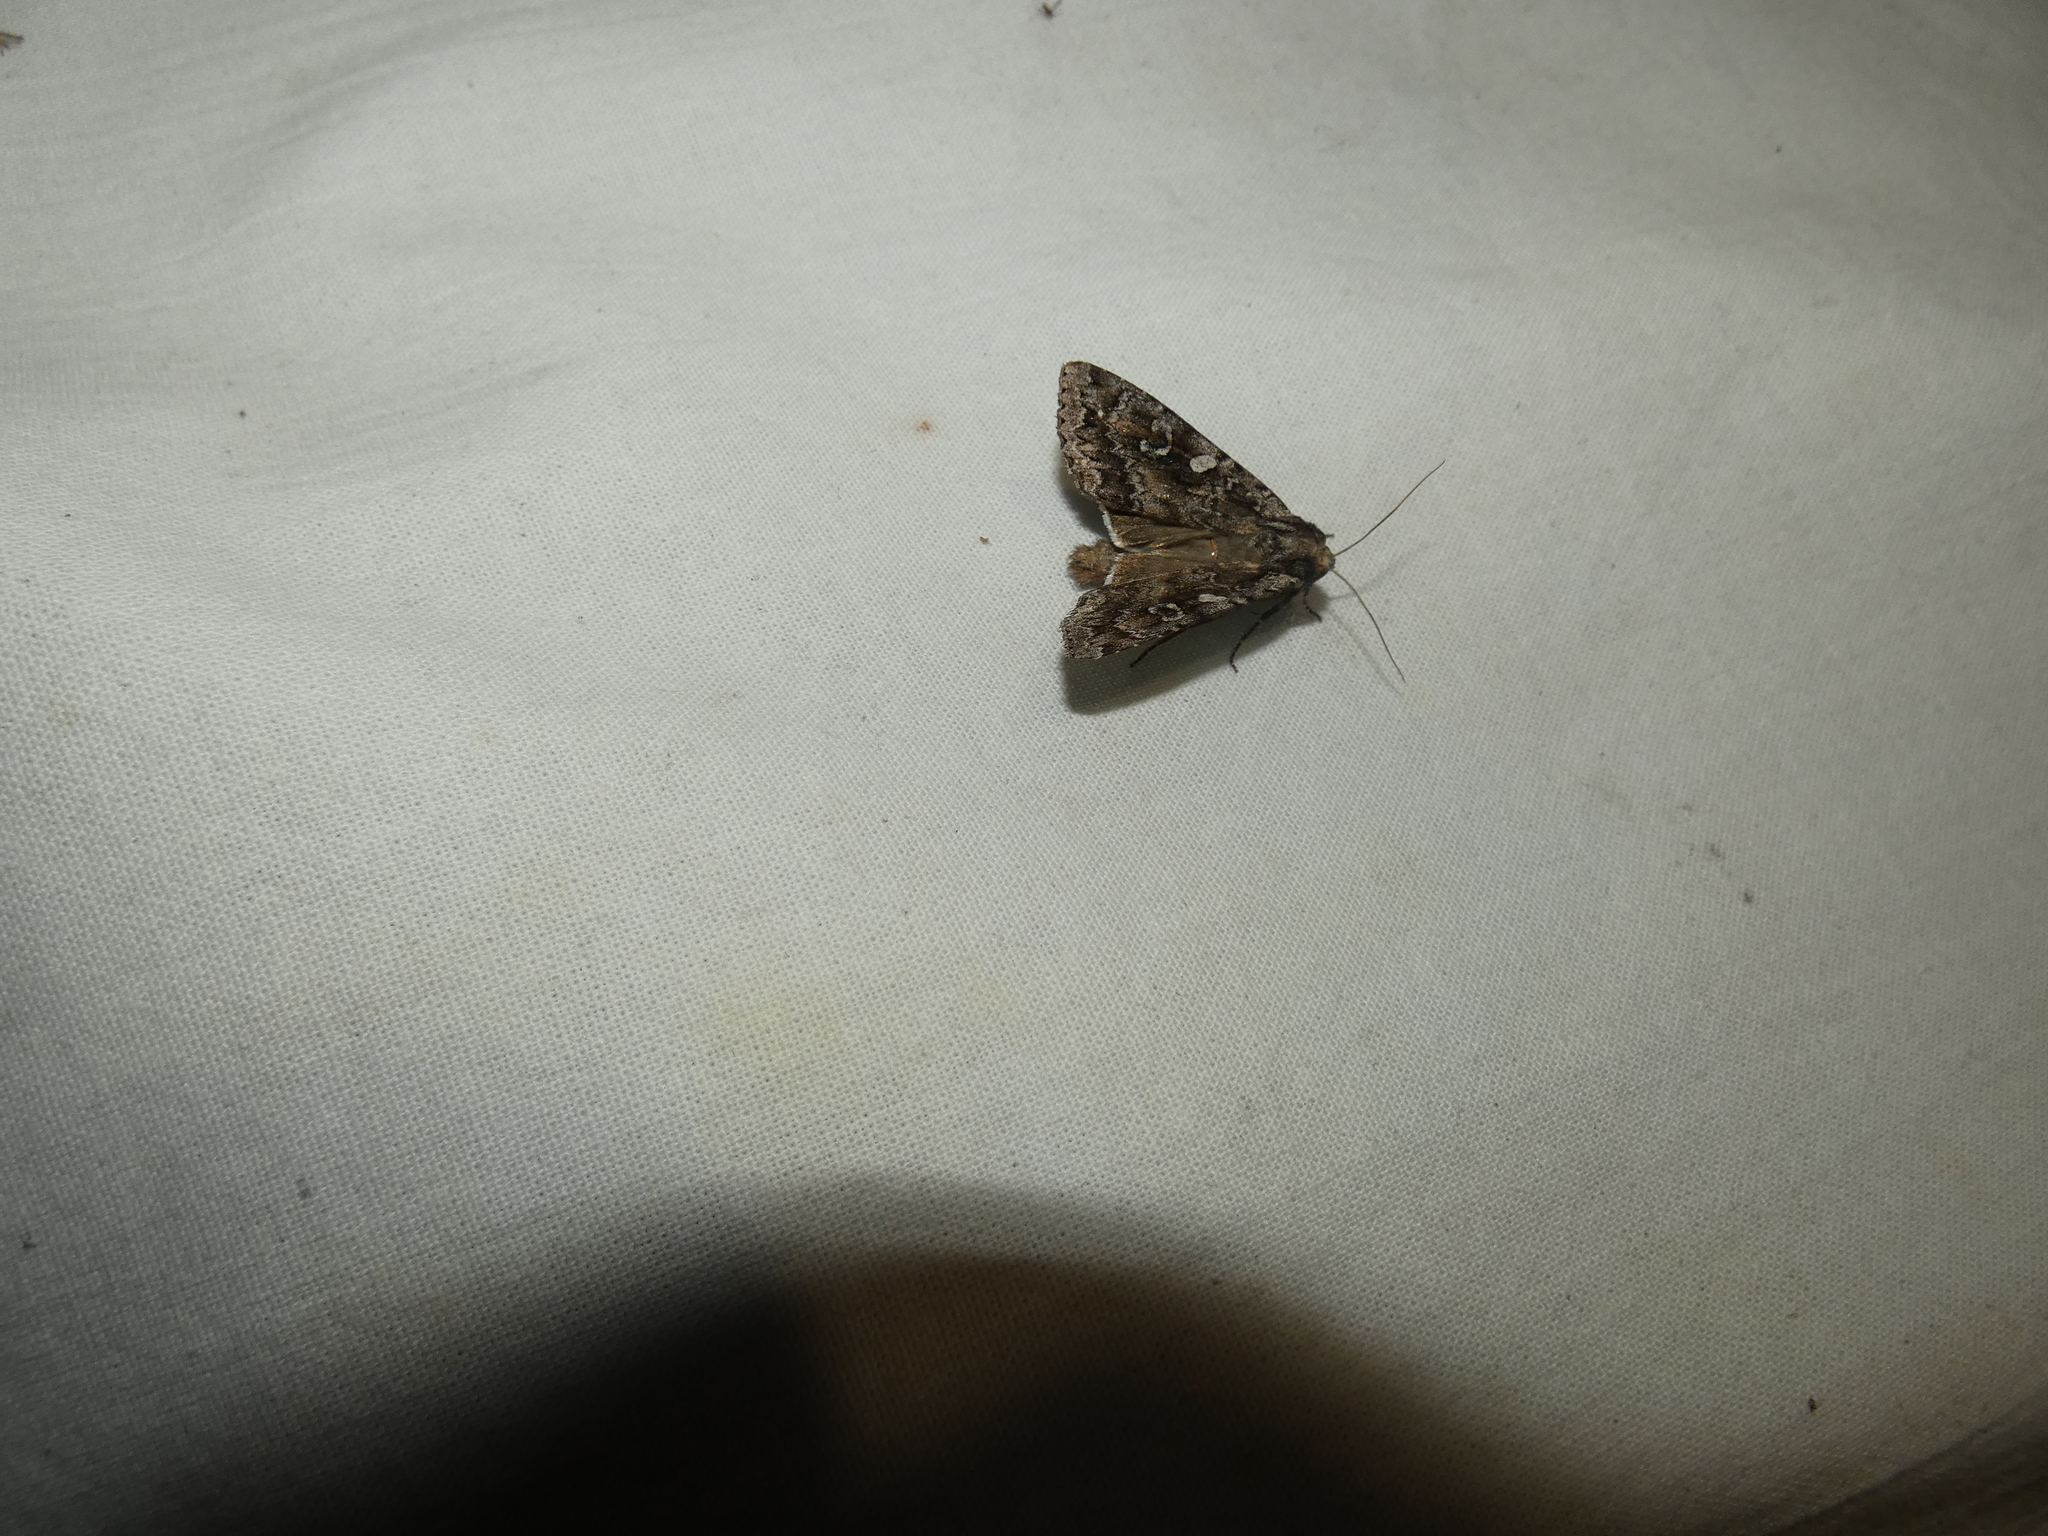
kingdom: Animalia
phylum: Arthropoda
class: Insecta
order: Lepidoptera
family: Noctuidae
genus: Eurois
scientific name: Eurois occulta
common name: Great brocade
